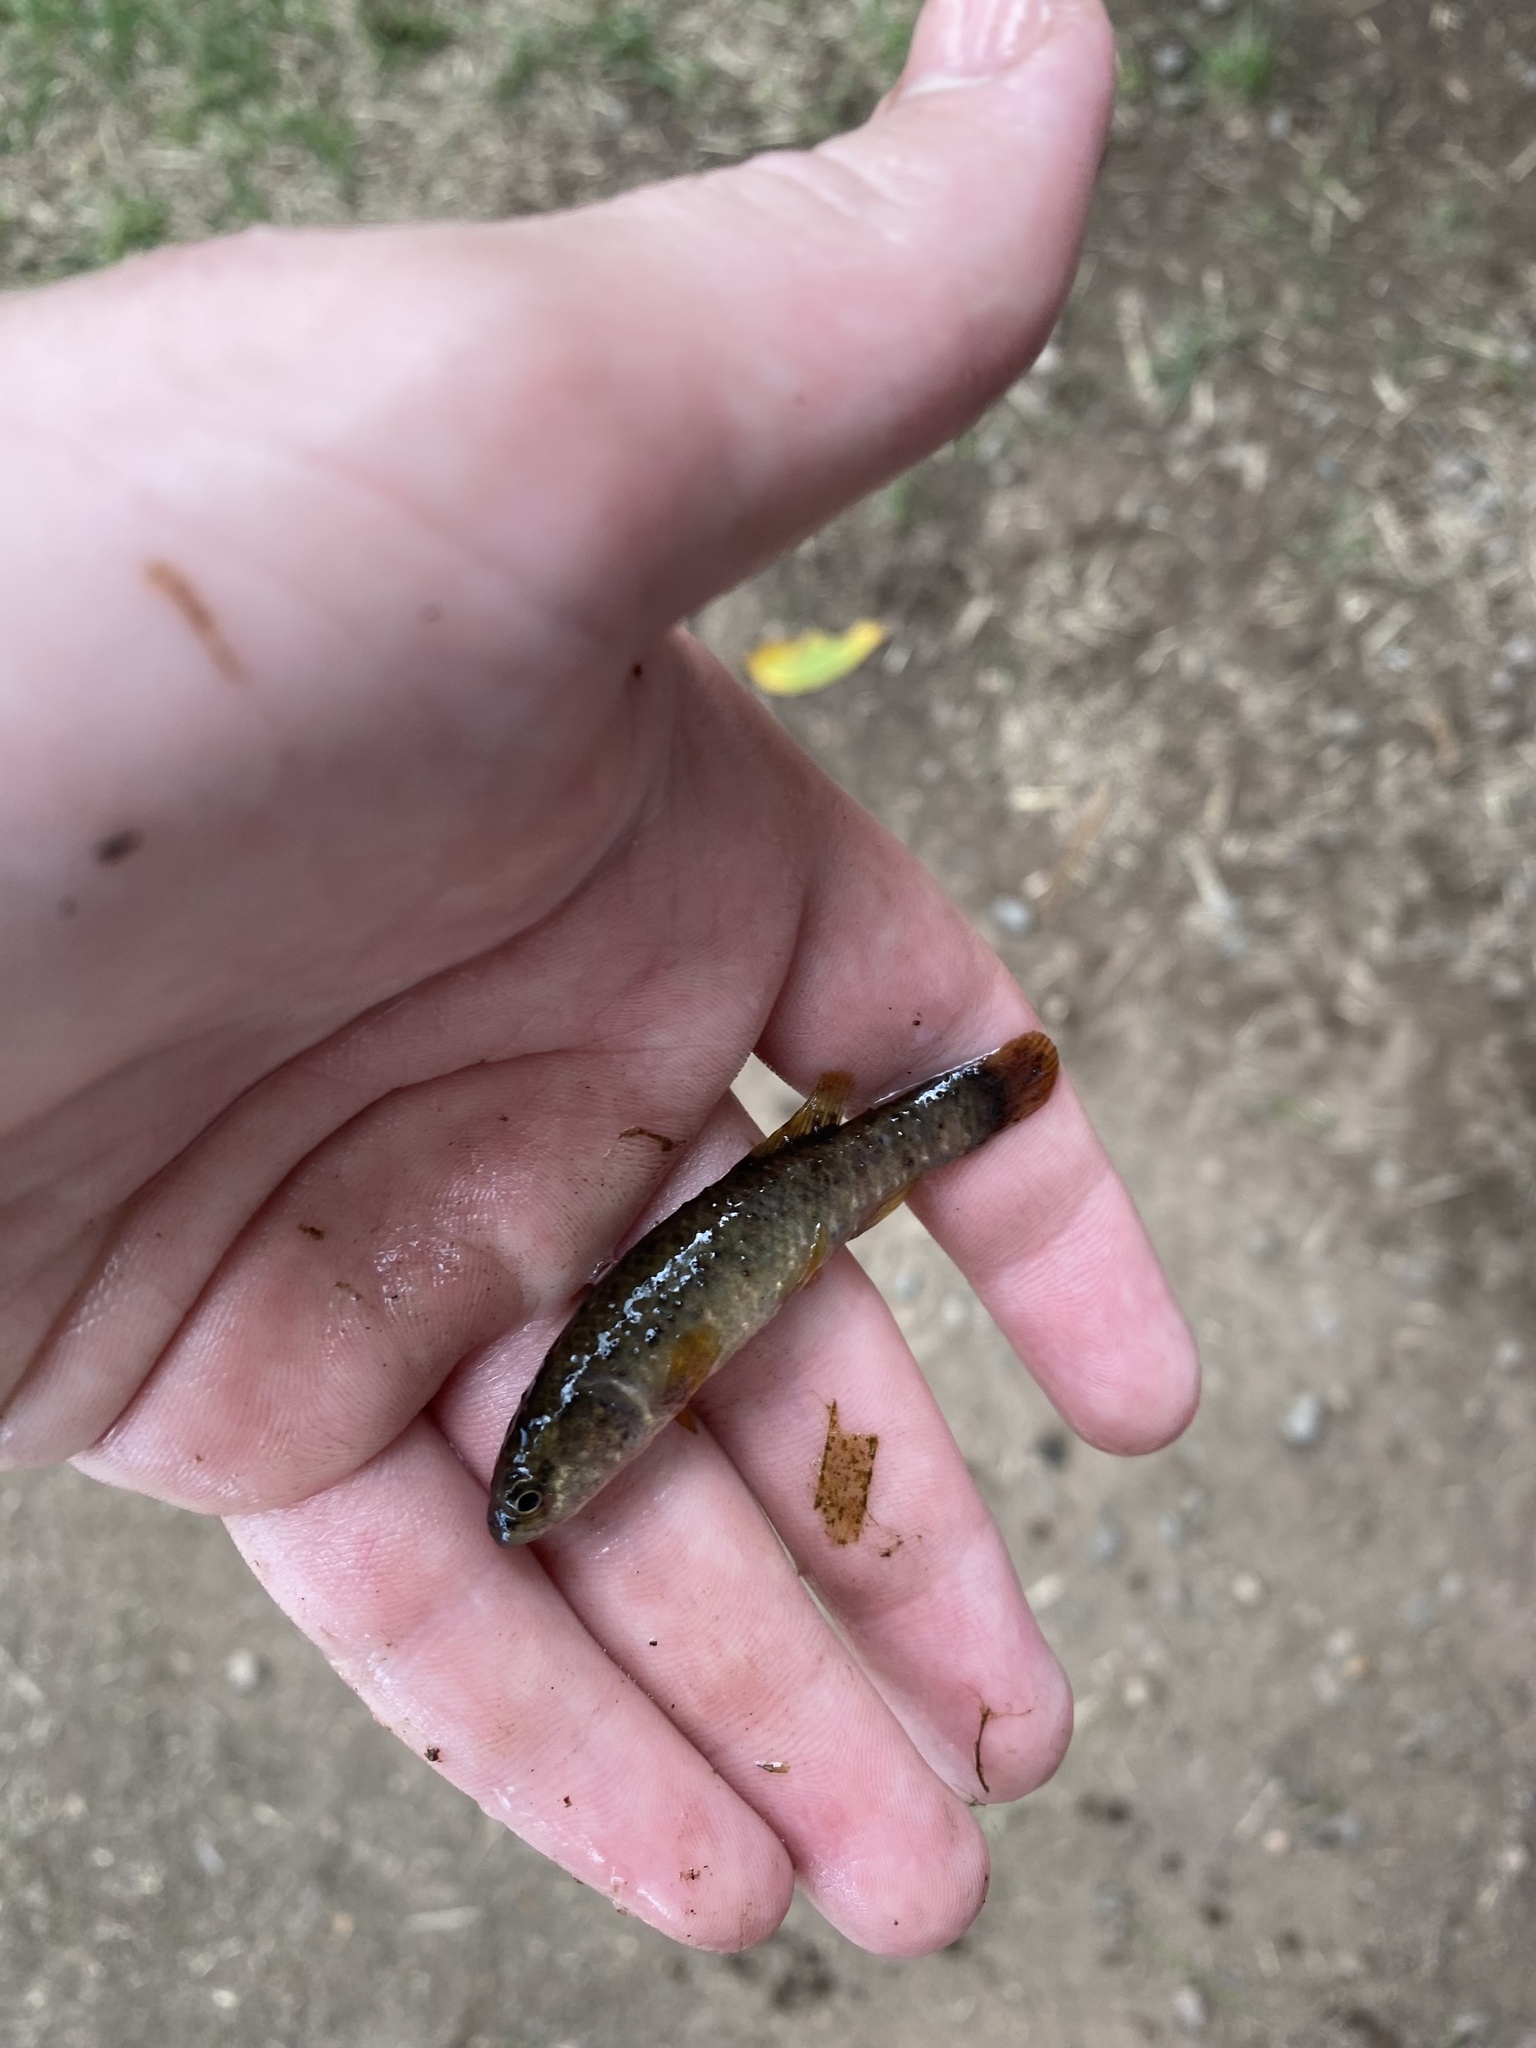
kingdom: Animalia
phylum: Chordata
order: Esociformes
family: Umbridae
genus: Umbra
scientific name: Umbra limi
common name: Central mudminnow
